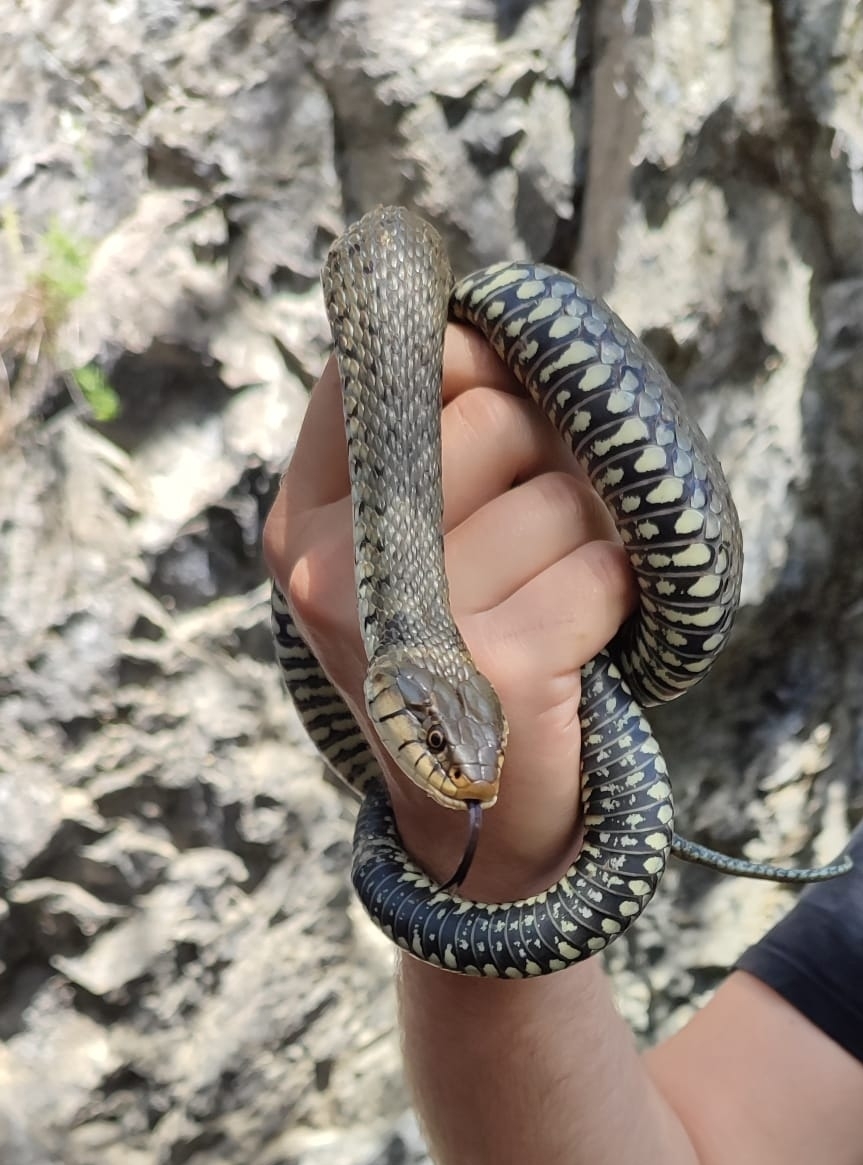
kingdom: Animalia
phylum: Chordata
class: Squamata
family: Colubridae
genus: Natrix
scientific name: Natrix helvetica
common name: Banded grass snake
